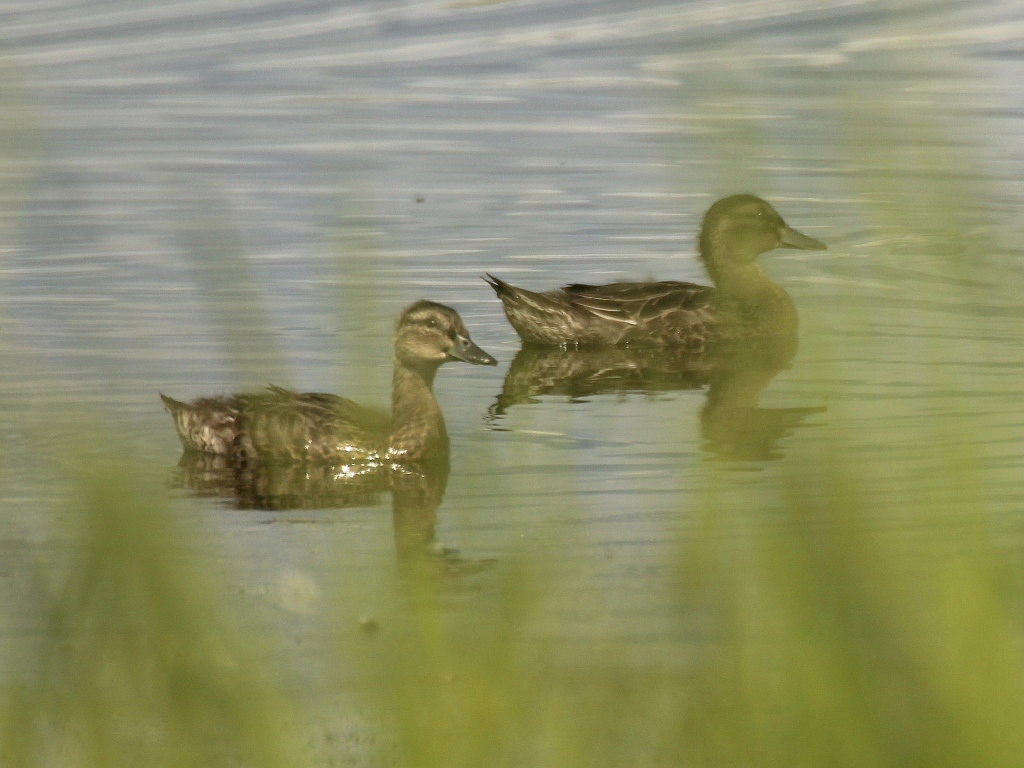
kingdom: Animalia
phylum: Chordata
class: Aves
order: Anseriformes
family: Anatidae
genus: Spatula
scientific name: Spatula querquedula
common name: Garganey
